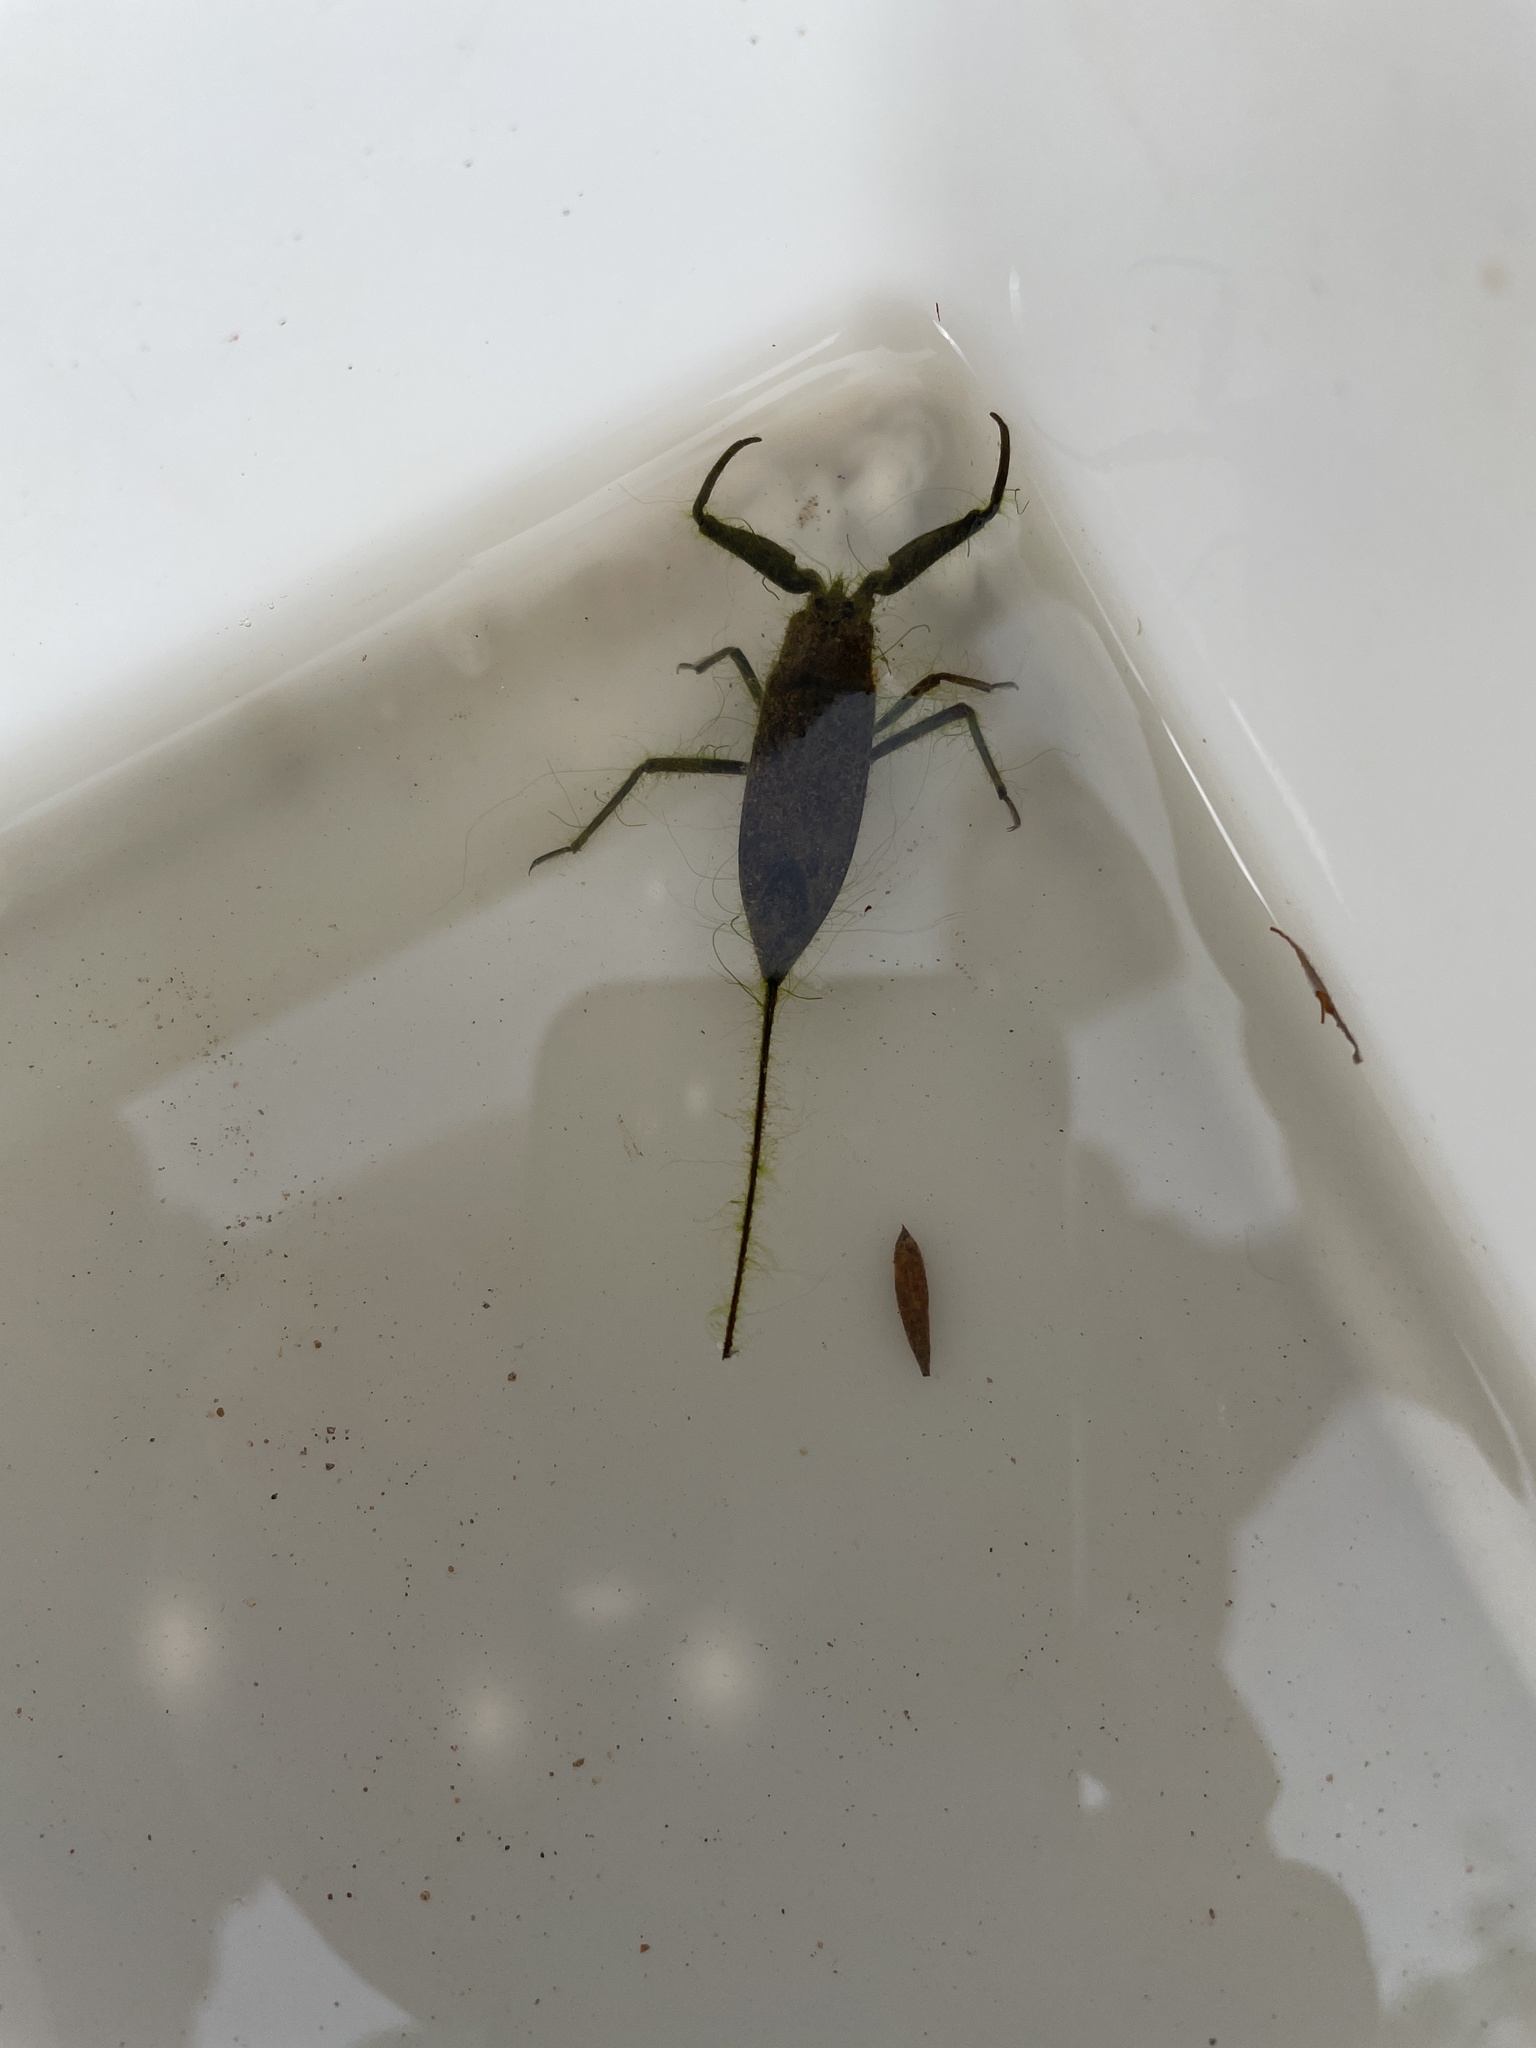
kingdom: Animalia
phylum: Arthropoda
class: Insecta
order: Hemiptera
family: Nepidae
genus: Laccotrephes
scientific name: Laccotrephes tristis
